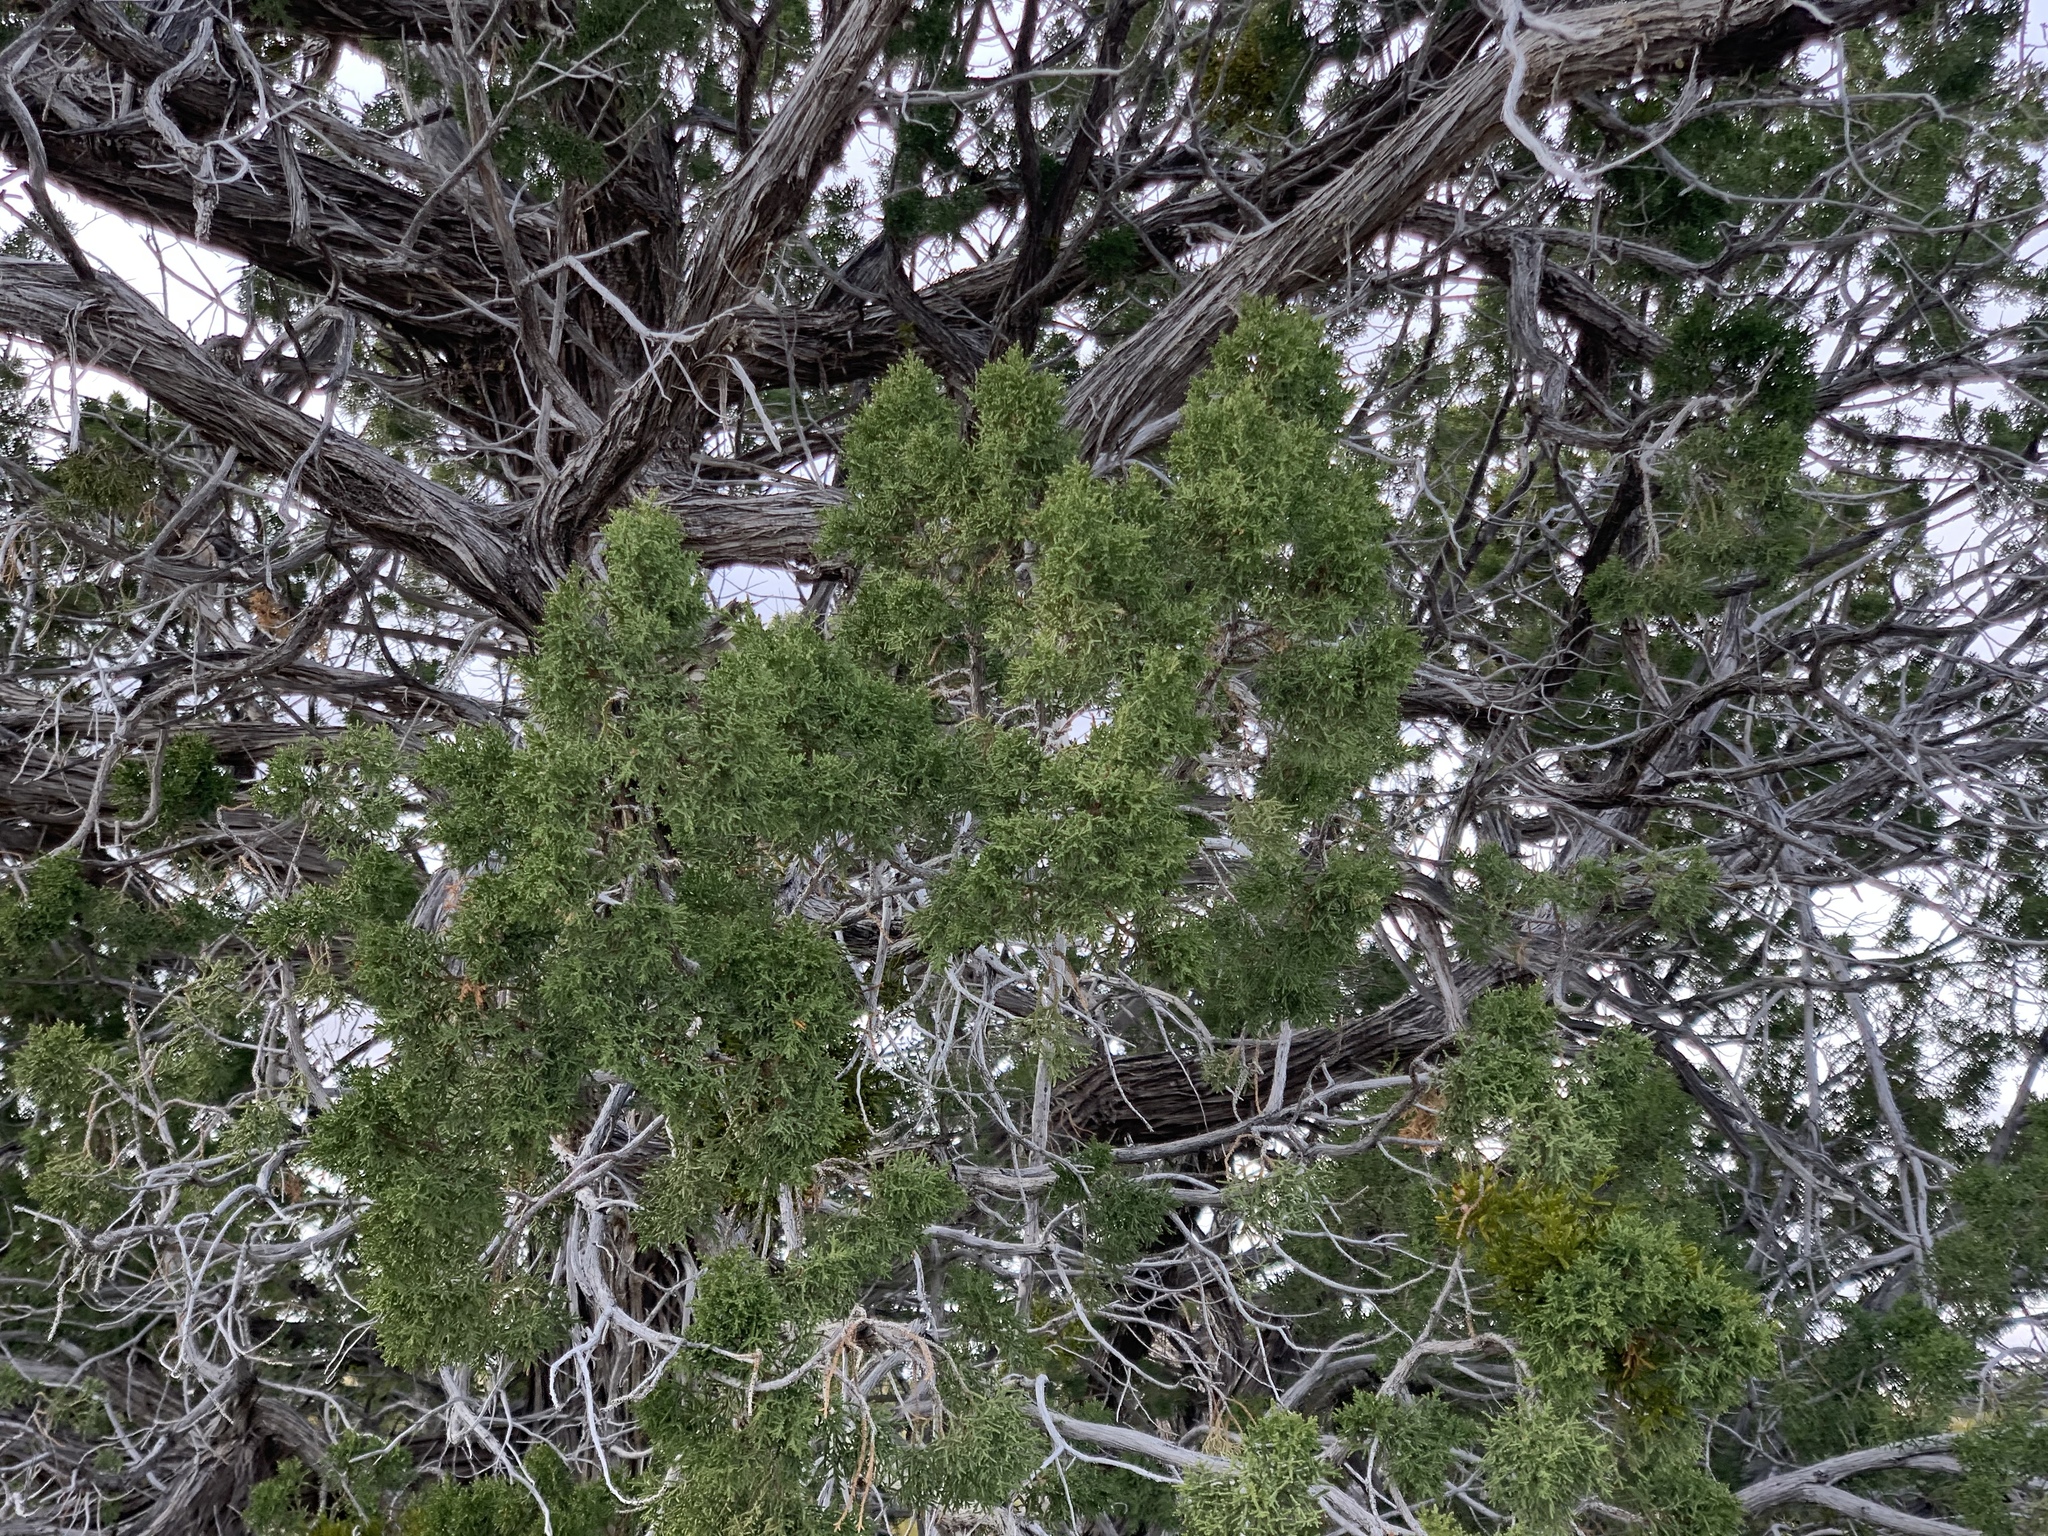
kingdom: Plantae
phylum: Tracheophyta
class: Pinopsida
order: Pinales
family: Cupressaceae
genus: Juniperus
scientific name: Juniperus monosperma
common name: One-seed juniper
